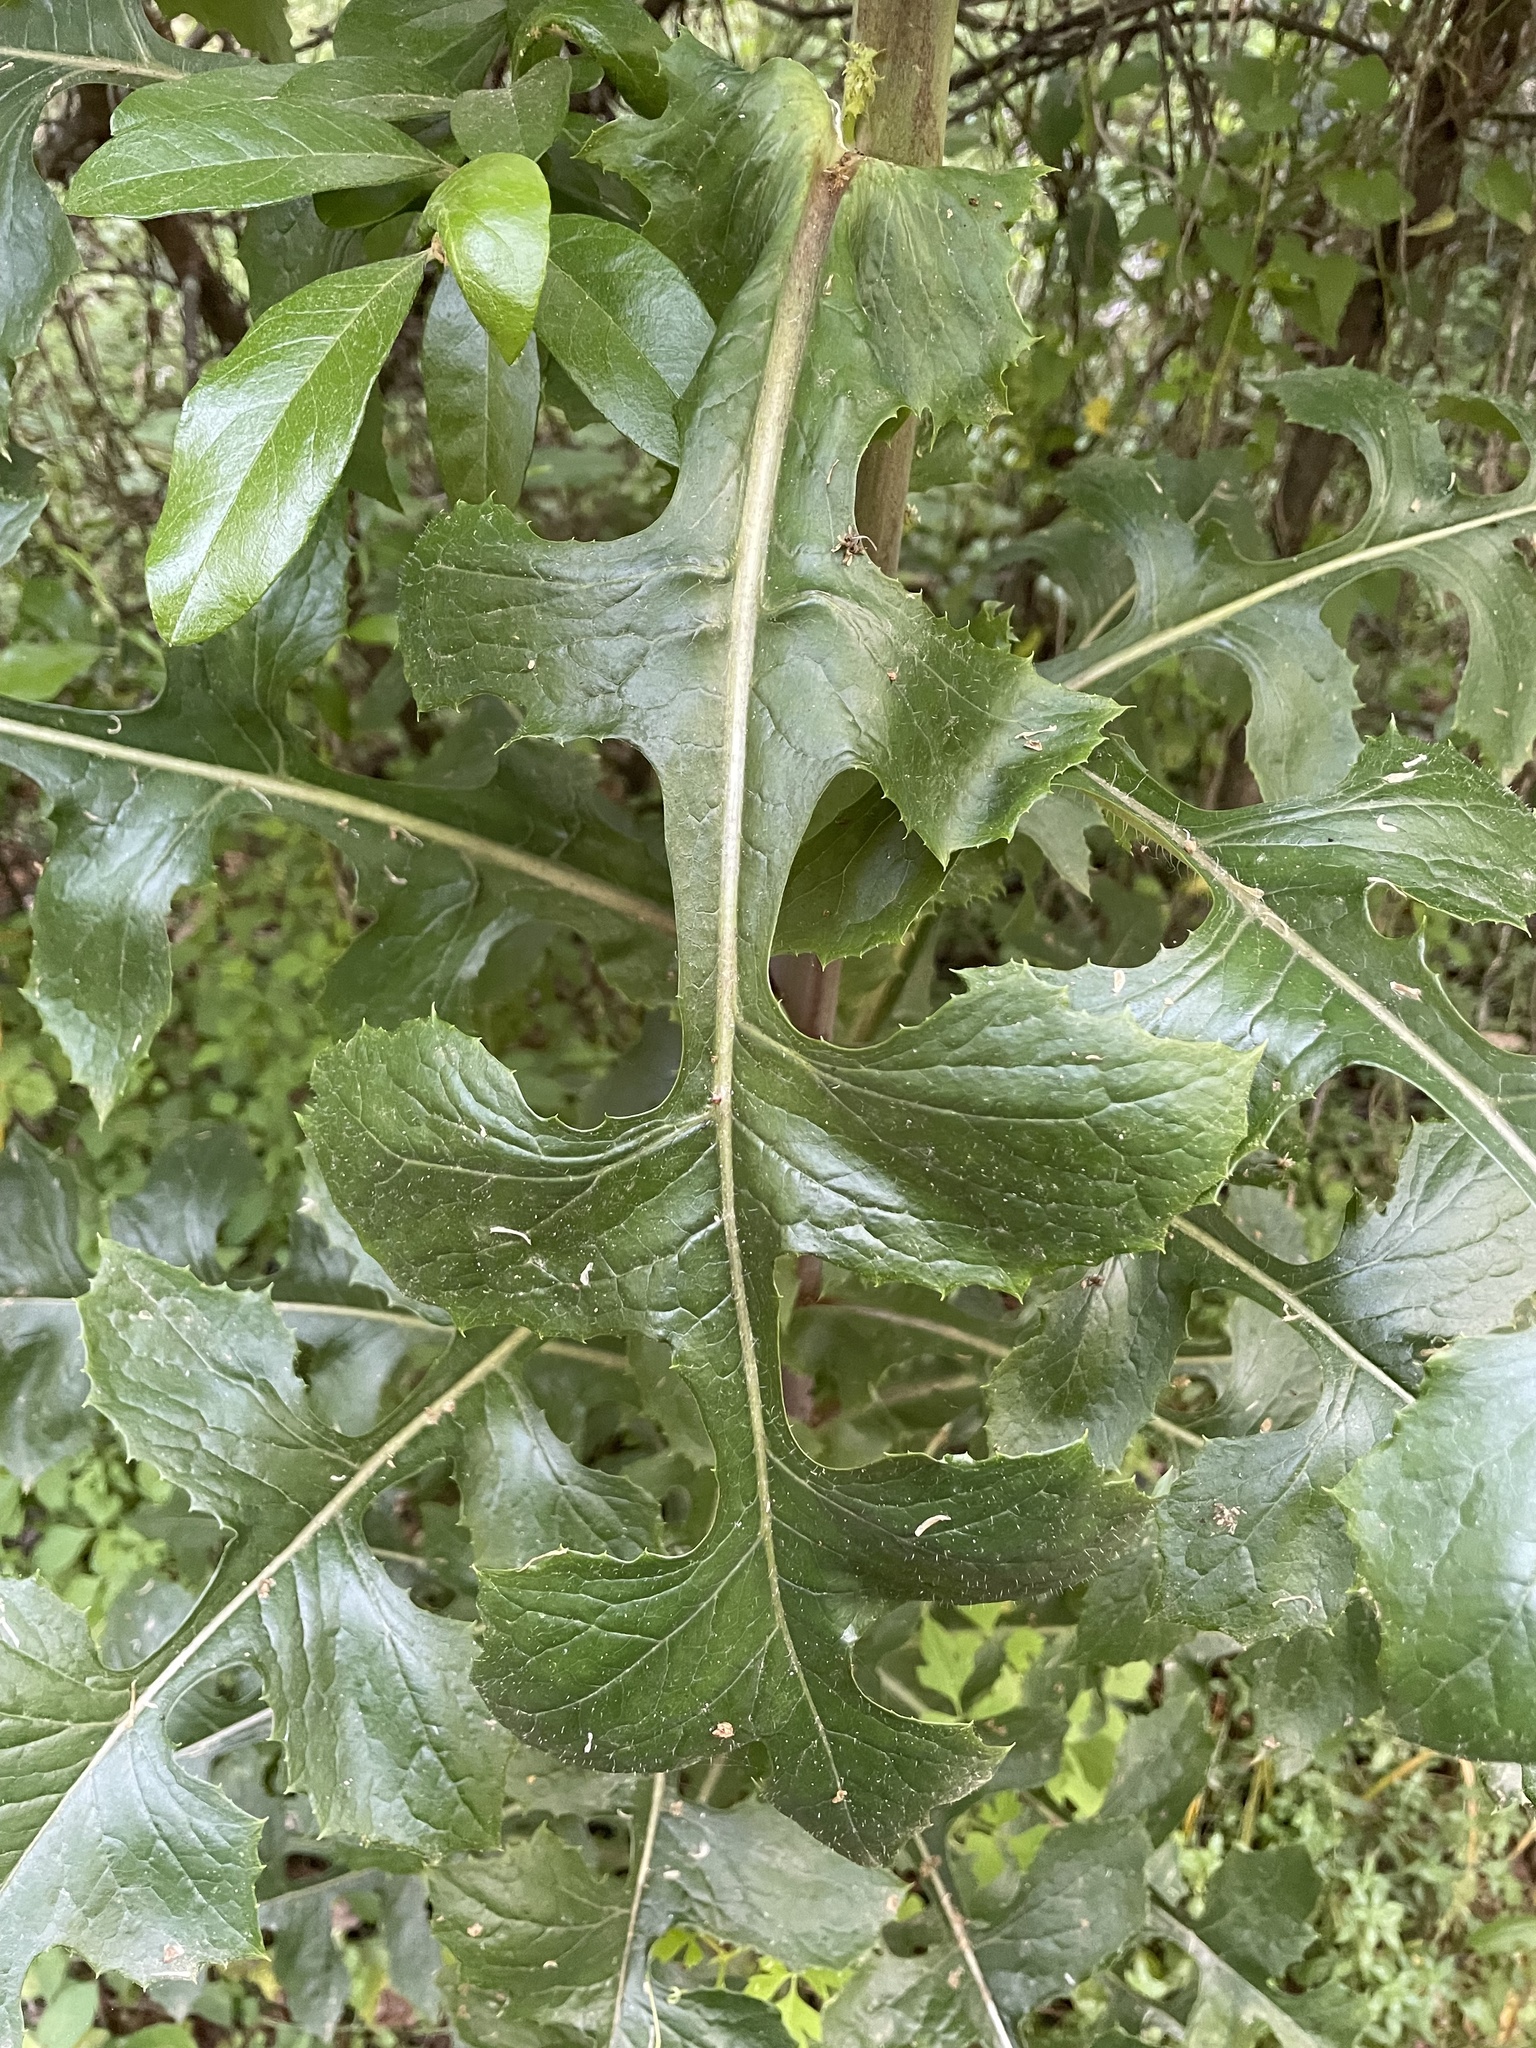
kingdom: Plantae
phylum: Tracheophyta
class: Magnoliopsida
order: Asterales
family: Asteraceae
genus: Lactuca
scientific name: Lactuca ludoviciana
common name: Louisiana lettuce
